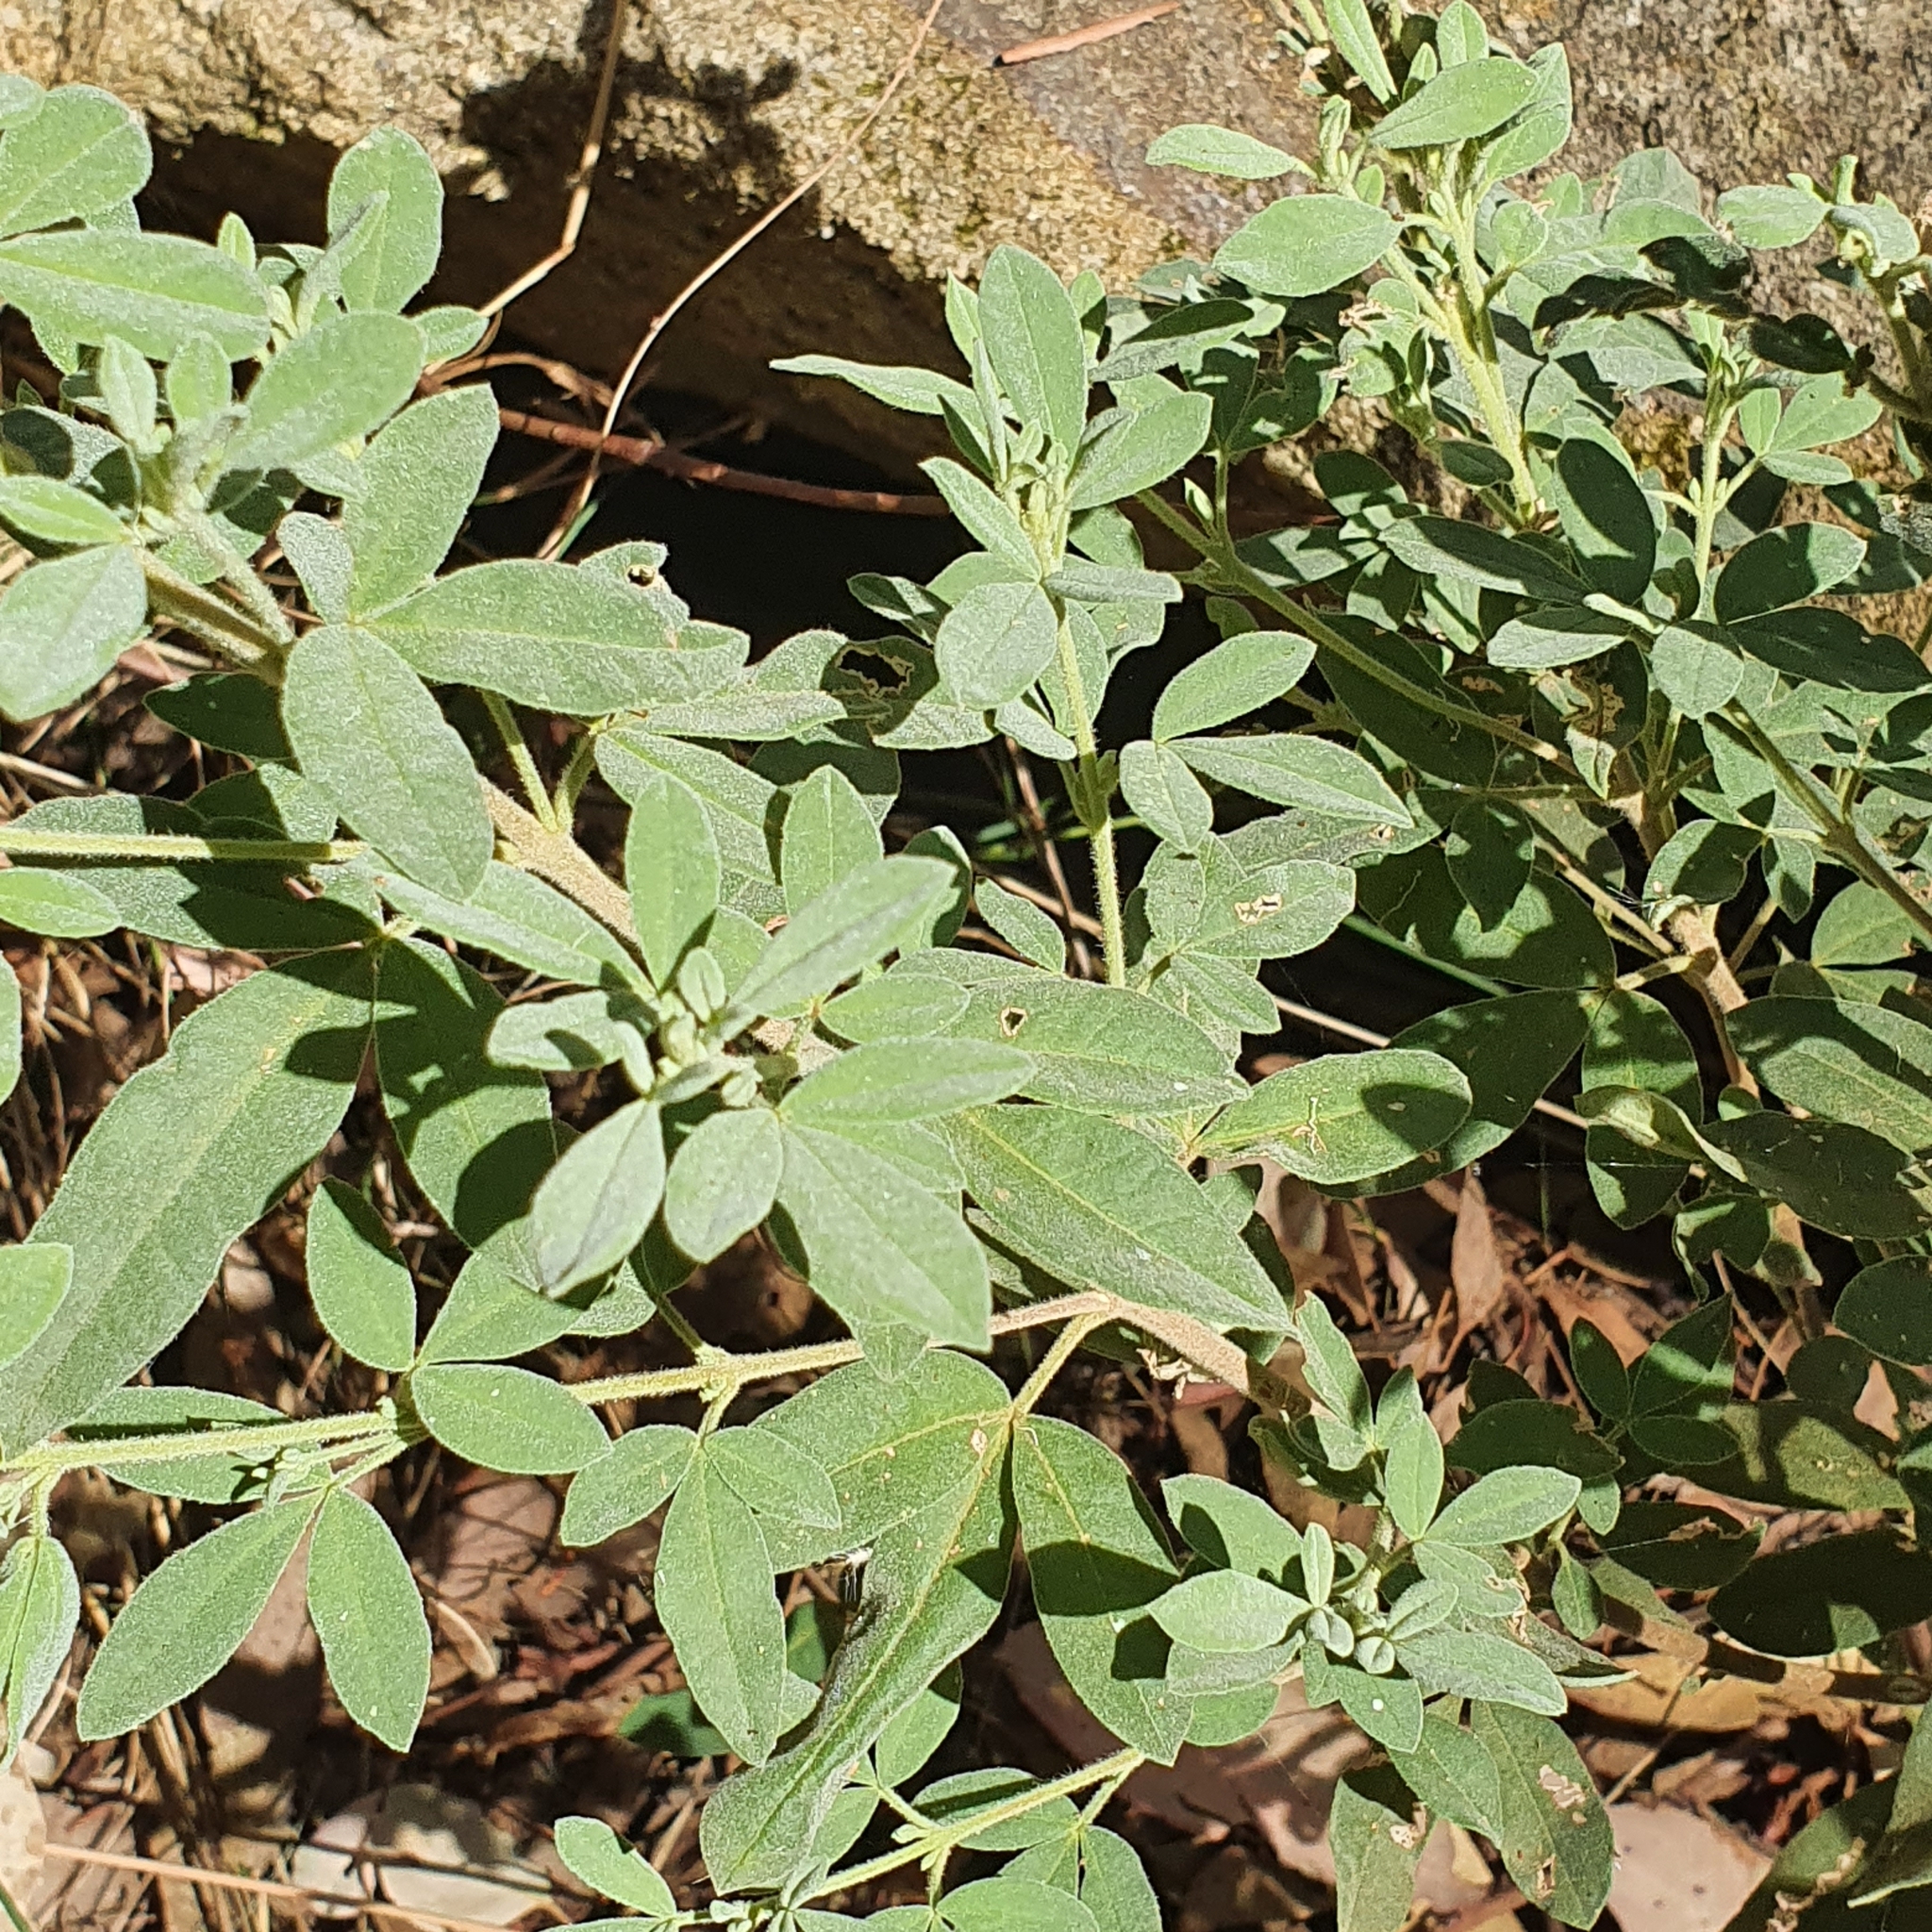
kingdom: Plantae
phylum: Tracheophyta
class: Magnoliopsida
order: Sapindales
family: Rutaceae
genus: Zieria
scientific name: Zieria cytisoides
